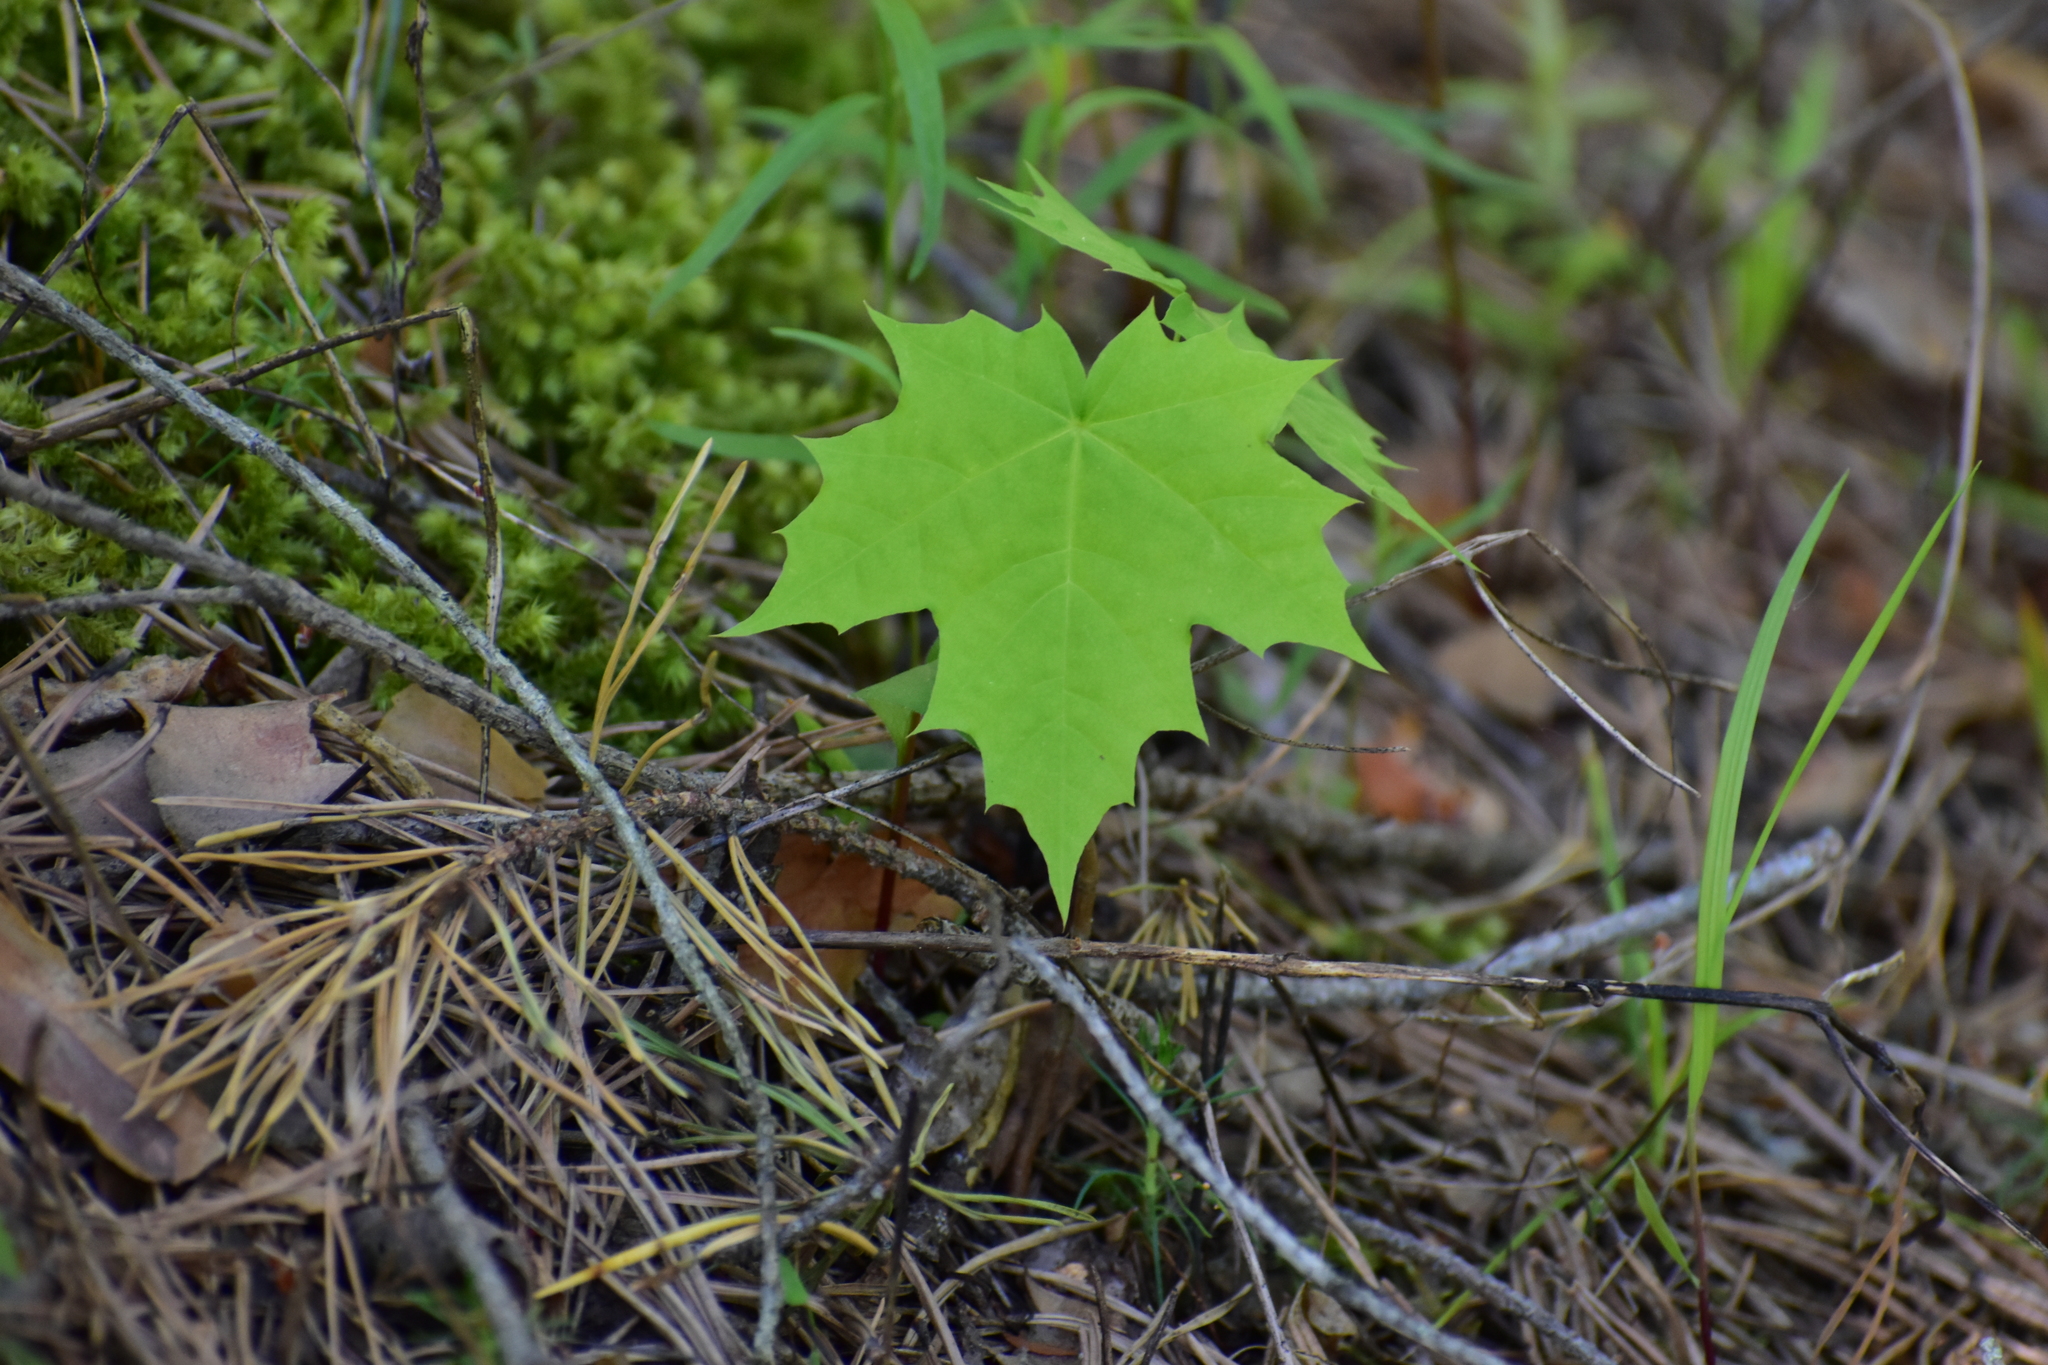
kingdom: Plantae
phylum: Tracheophyta
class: Magnoliopsida
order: Sapindales
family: Sapindaceae
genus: Acer
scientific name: Acer platanoides
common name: Norway maple
